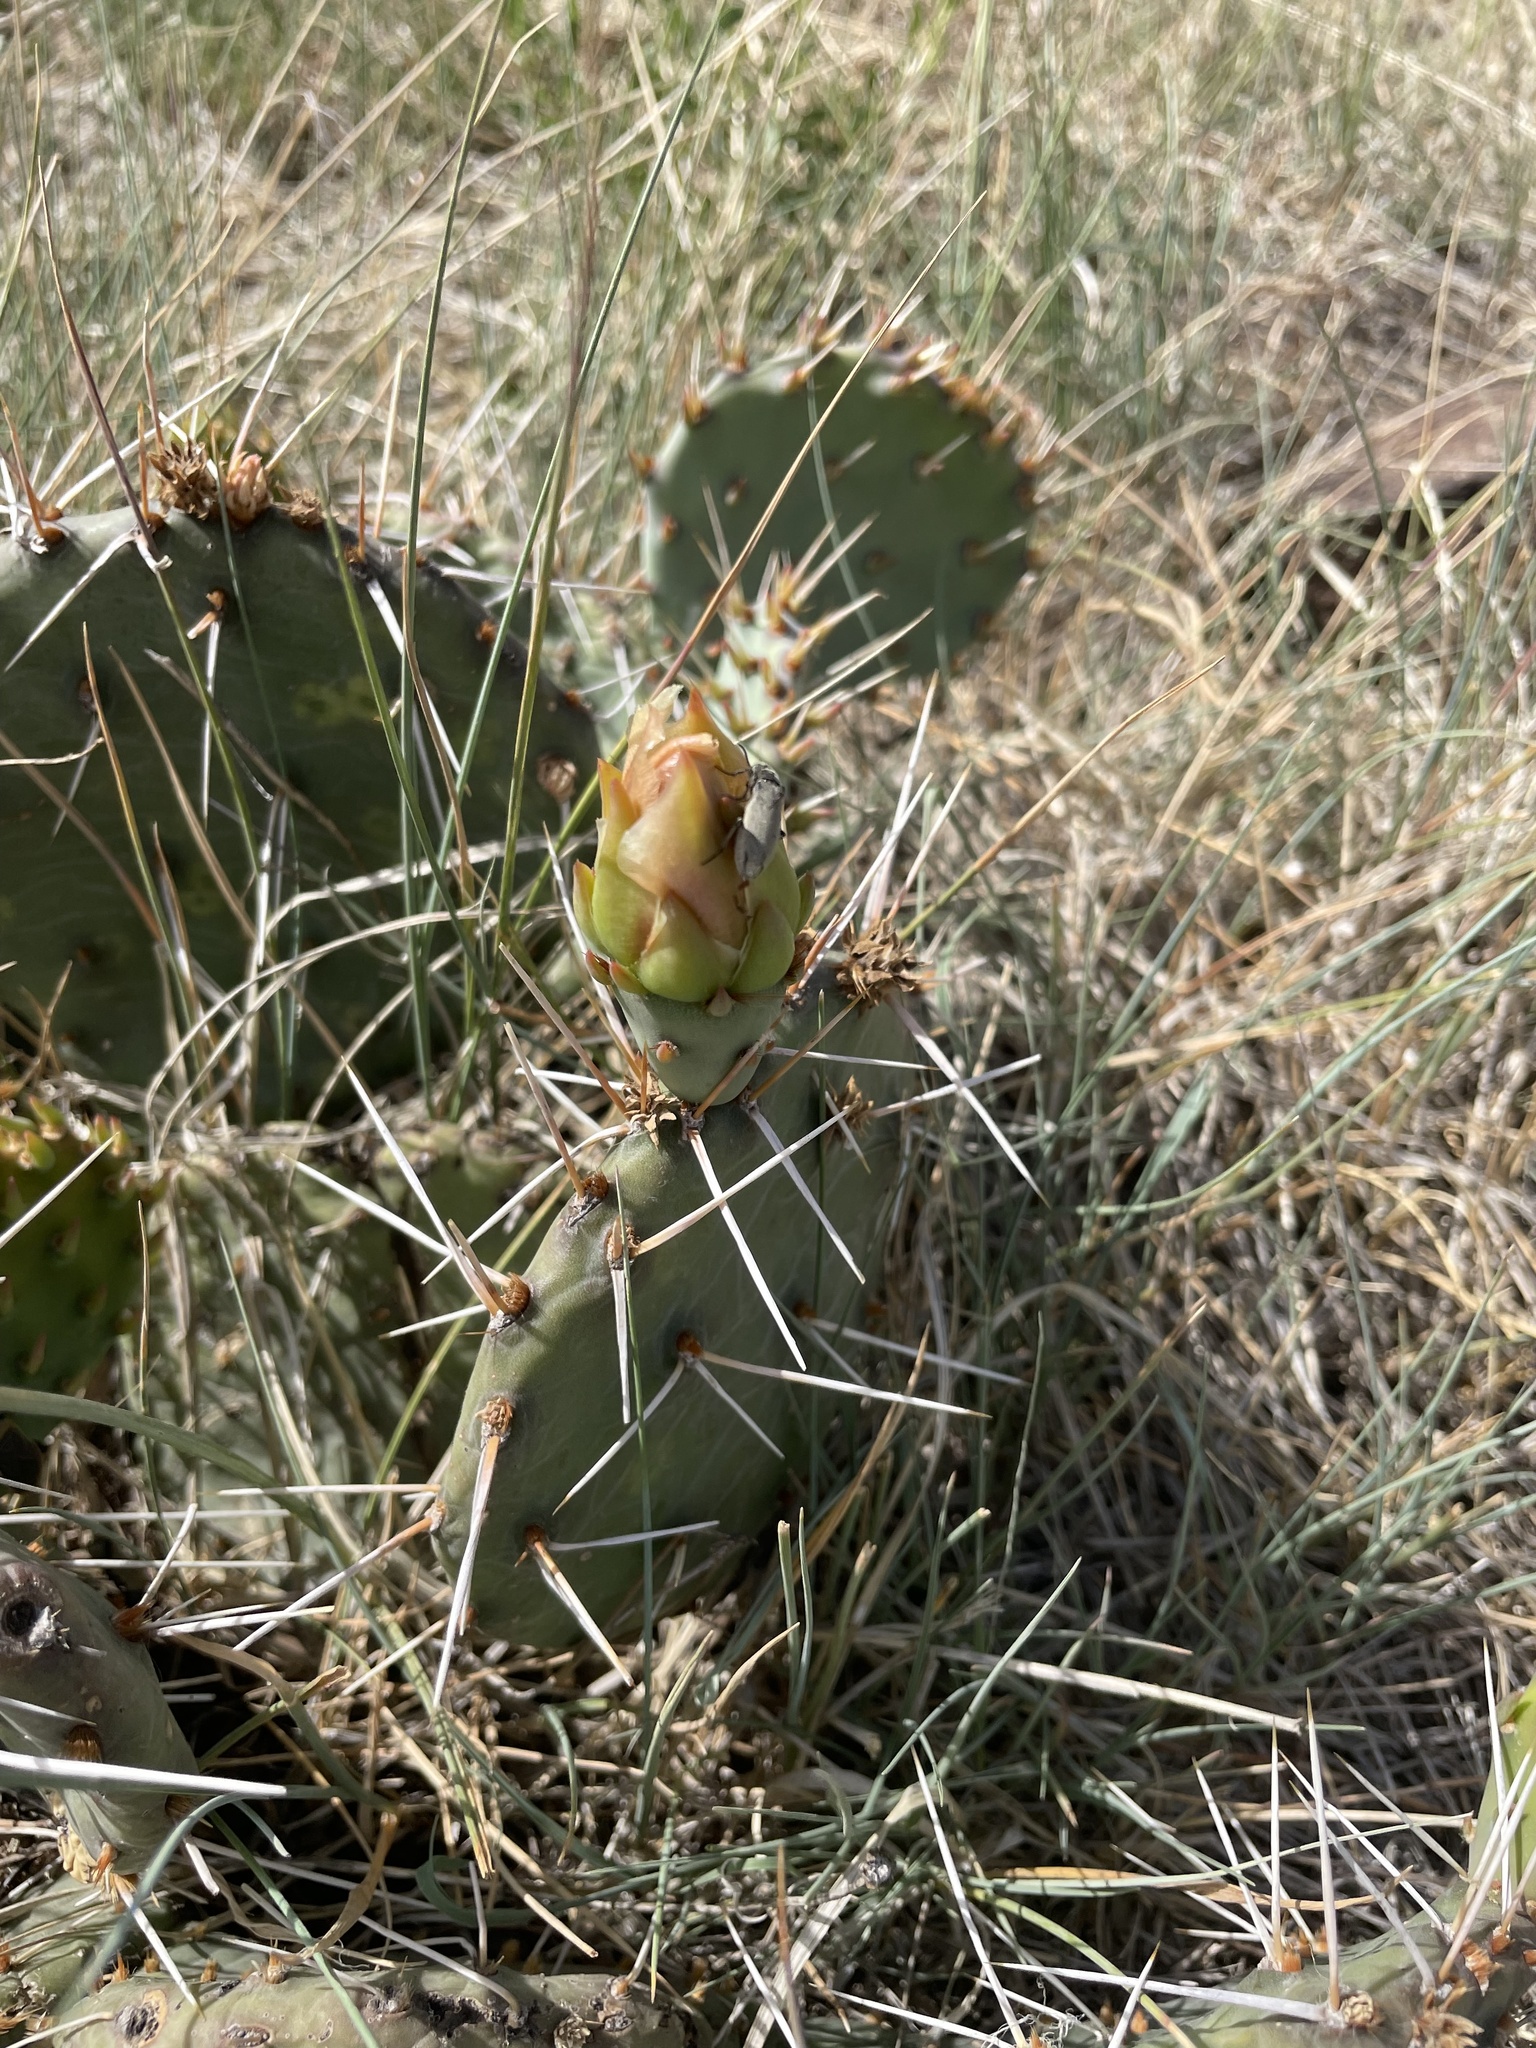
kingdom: Plantae
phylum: Tracheophyta
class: Magnoliopsida
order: Caryophyllales
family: Cactaceae
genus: Opuntia
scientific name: Opuntia
